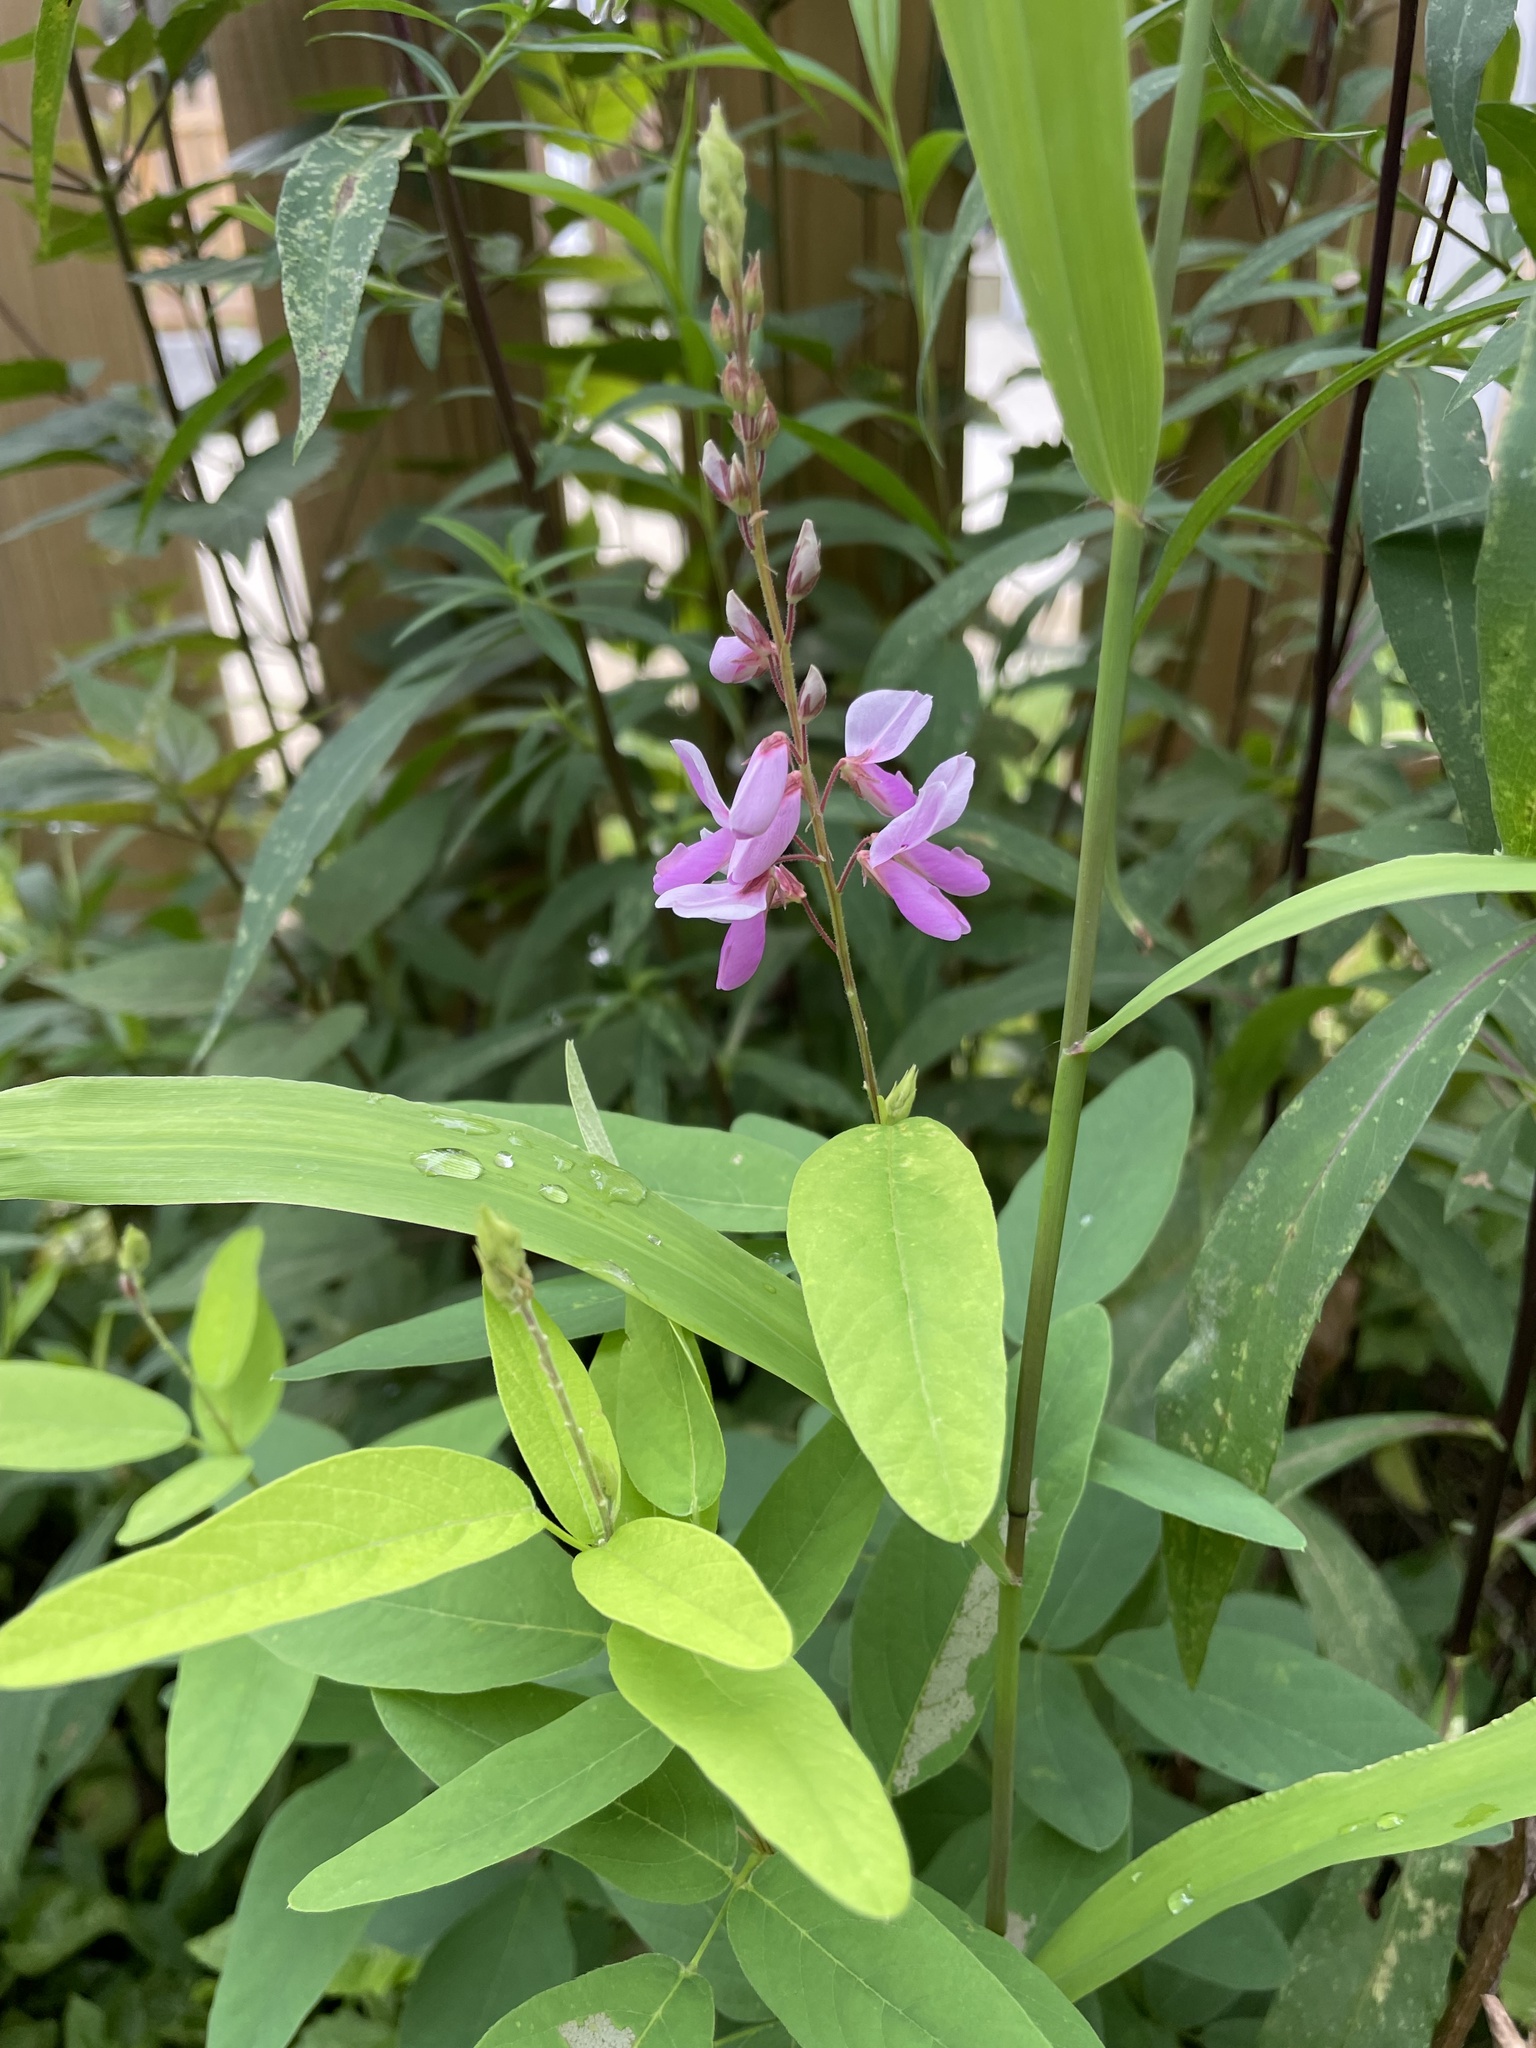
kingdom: Plantae
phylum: Tracheophyta
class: Magnoliopsida
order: Fabales
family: Fabaceae
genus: Desmodium
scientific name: Desmodium canadense
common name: Canada tick-trefoil
